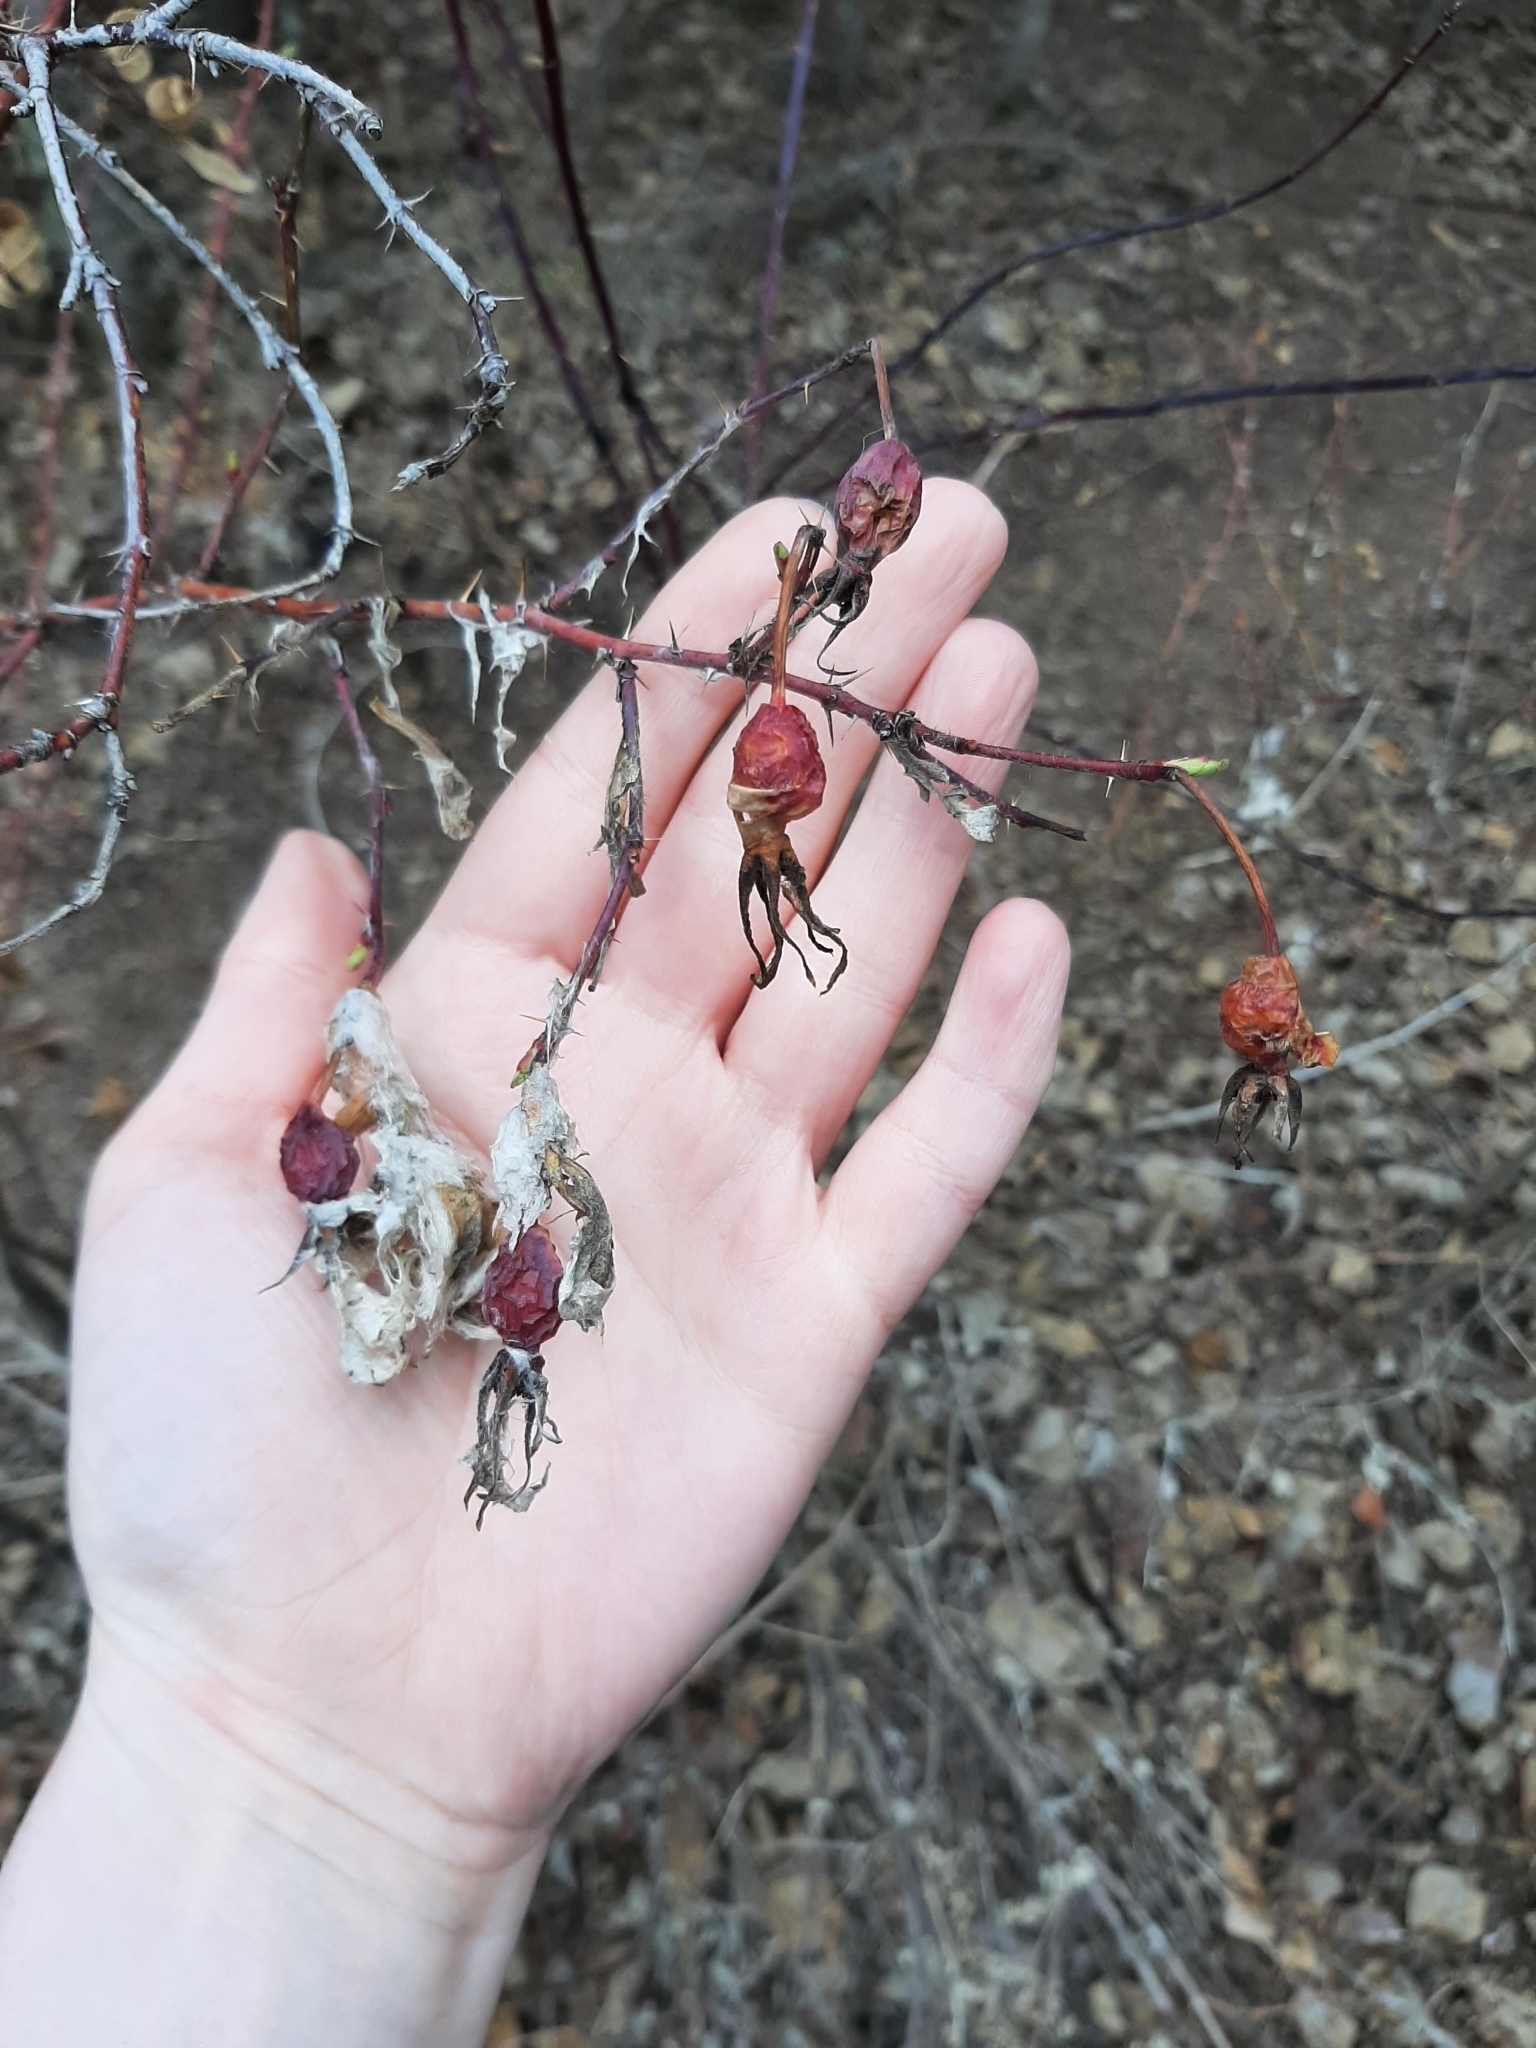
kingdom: Plantae
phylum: Tracheophyta
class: Magnoliopsida
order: Rosales
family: Rosaceae
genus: Rosa
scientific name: Rosa woodsii
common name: Woods's rose
